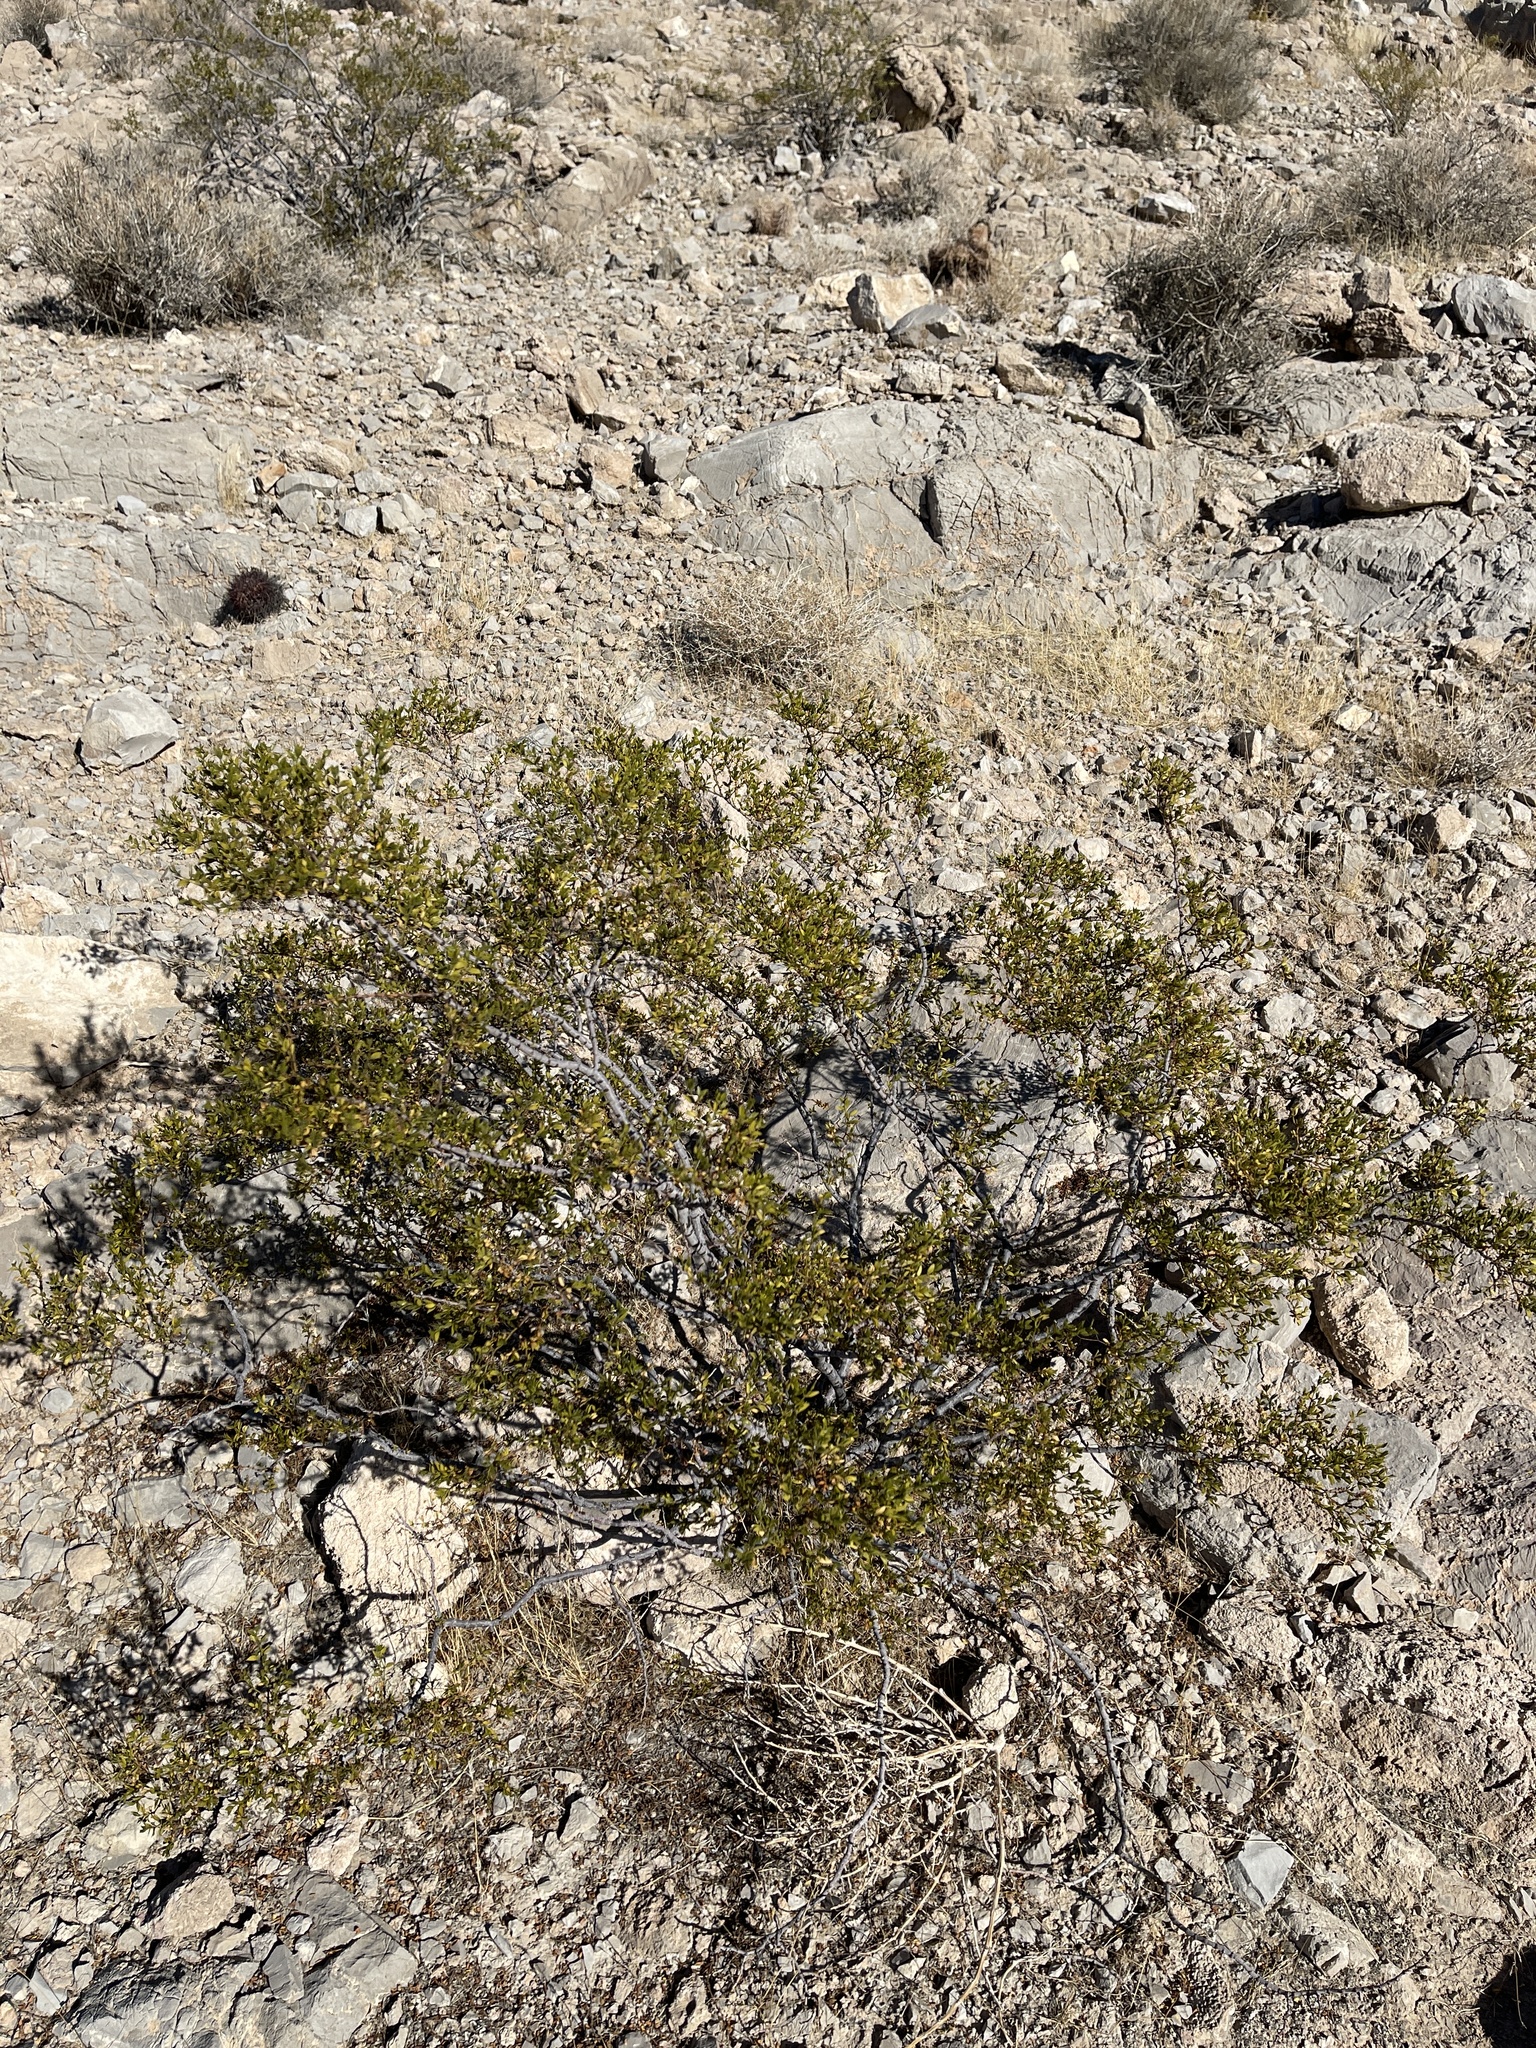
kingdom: Plantae
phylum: Tracheophyta
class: Magnoliopsida
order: Zygophyllales
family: Zygophyllaceae
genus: Larrea
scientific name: Larrea tridentata
